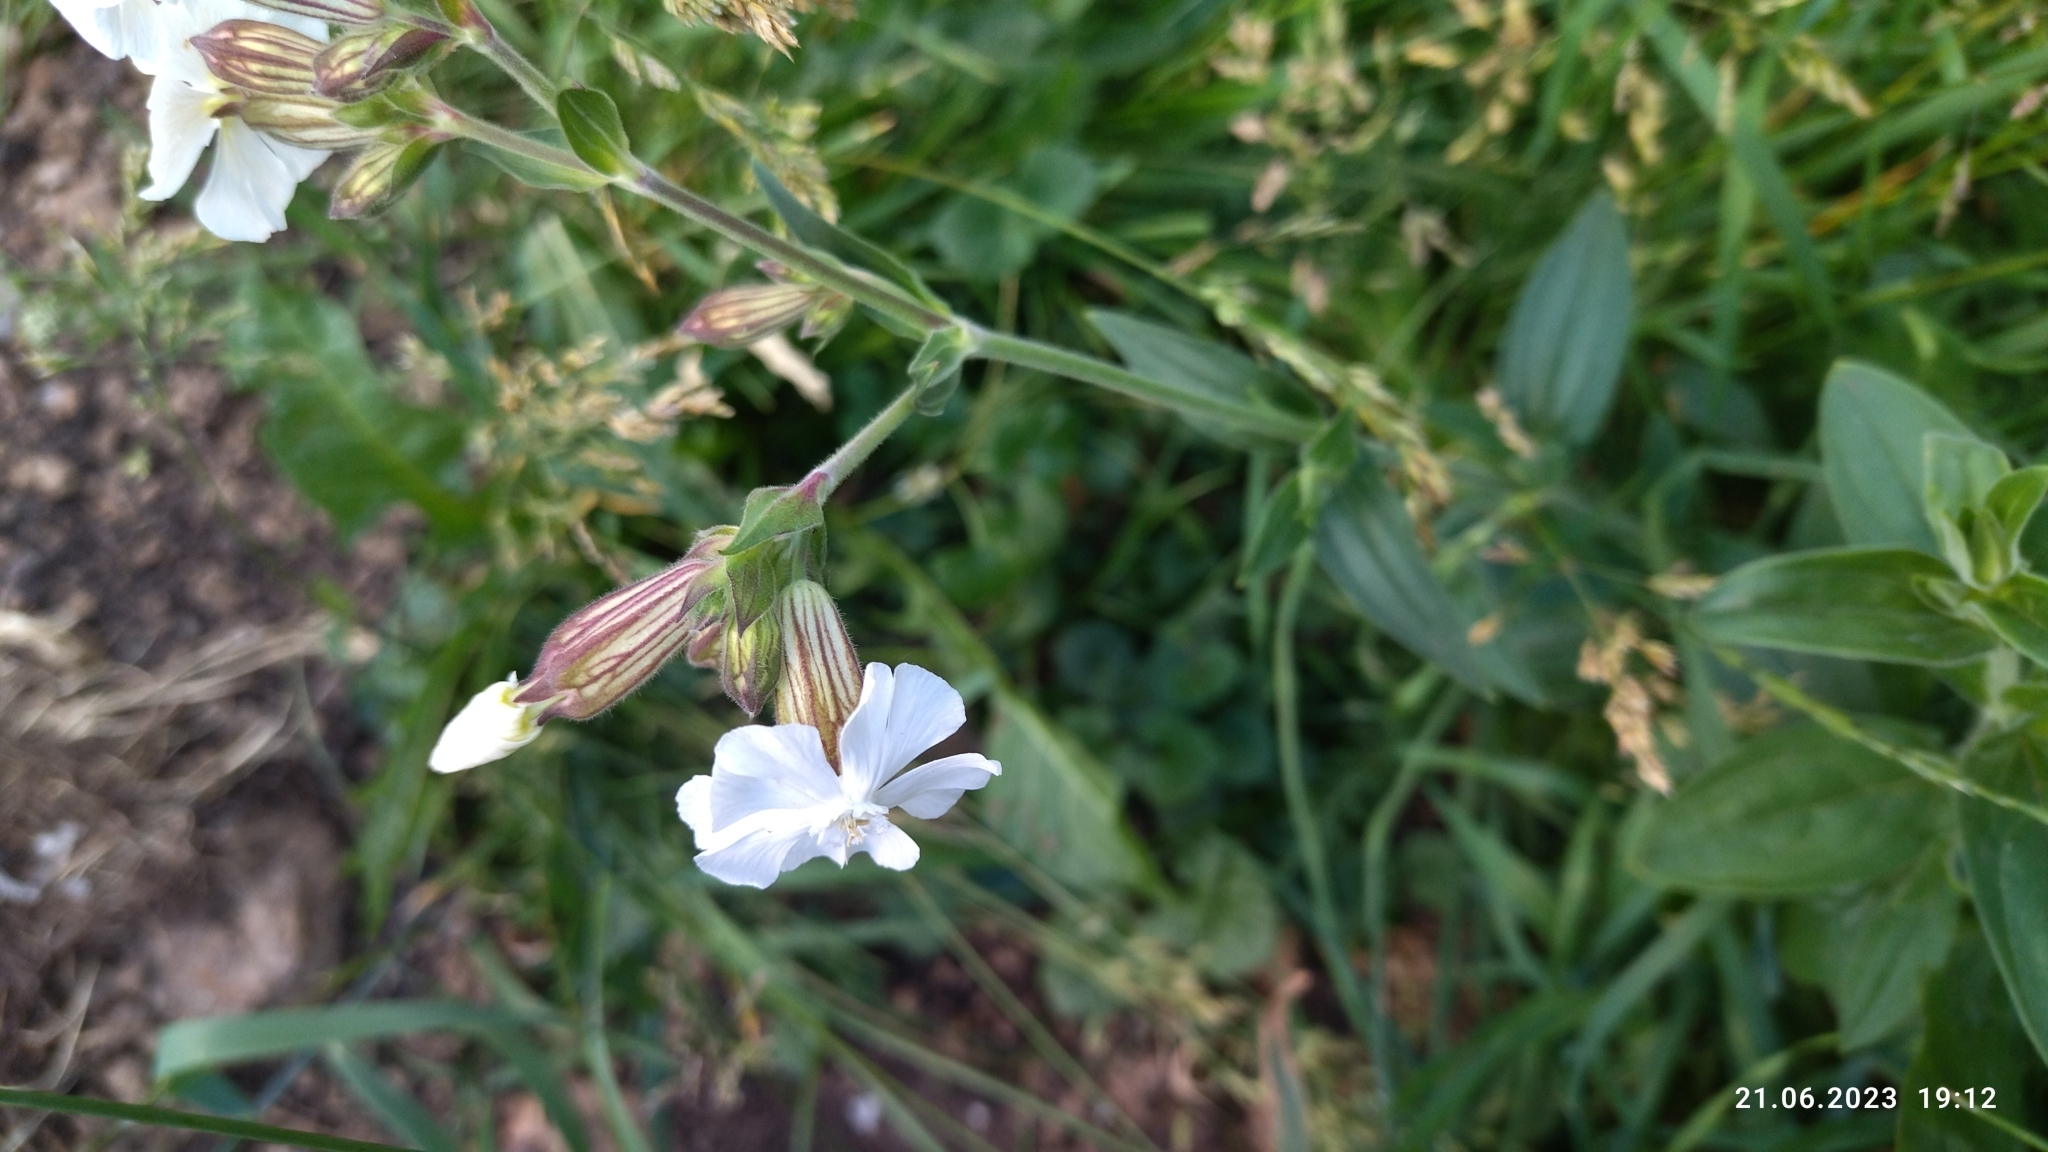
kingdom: Plantae
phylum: Tracheophyta
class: Magnoliopsida
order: Caryophyllales
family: Caryophyllaceae
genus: Silene
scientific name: Silene latifolia
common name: White campion
